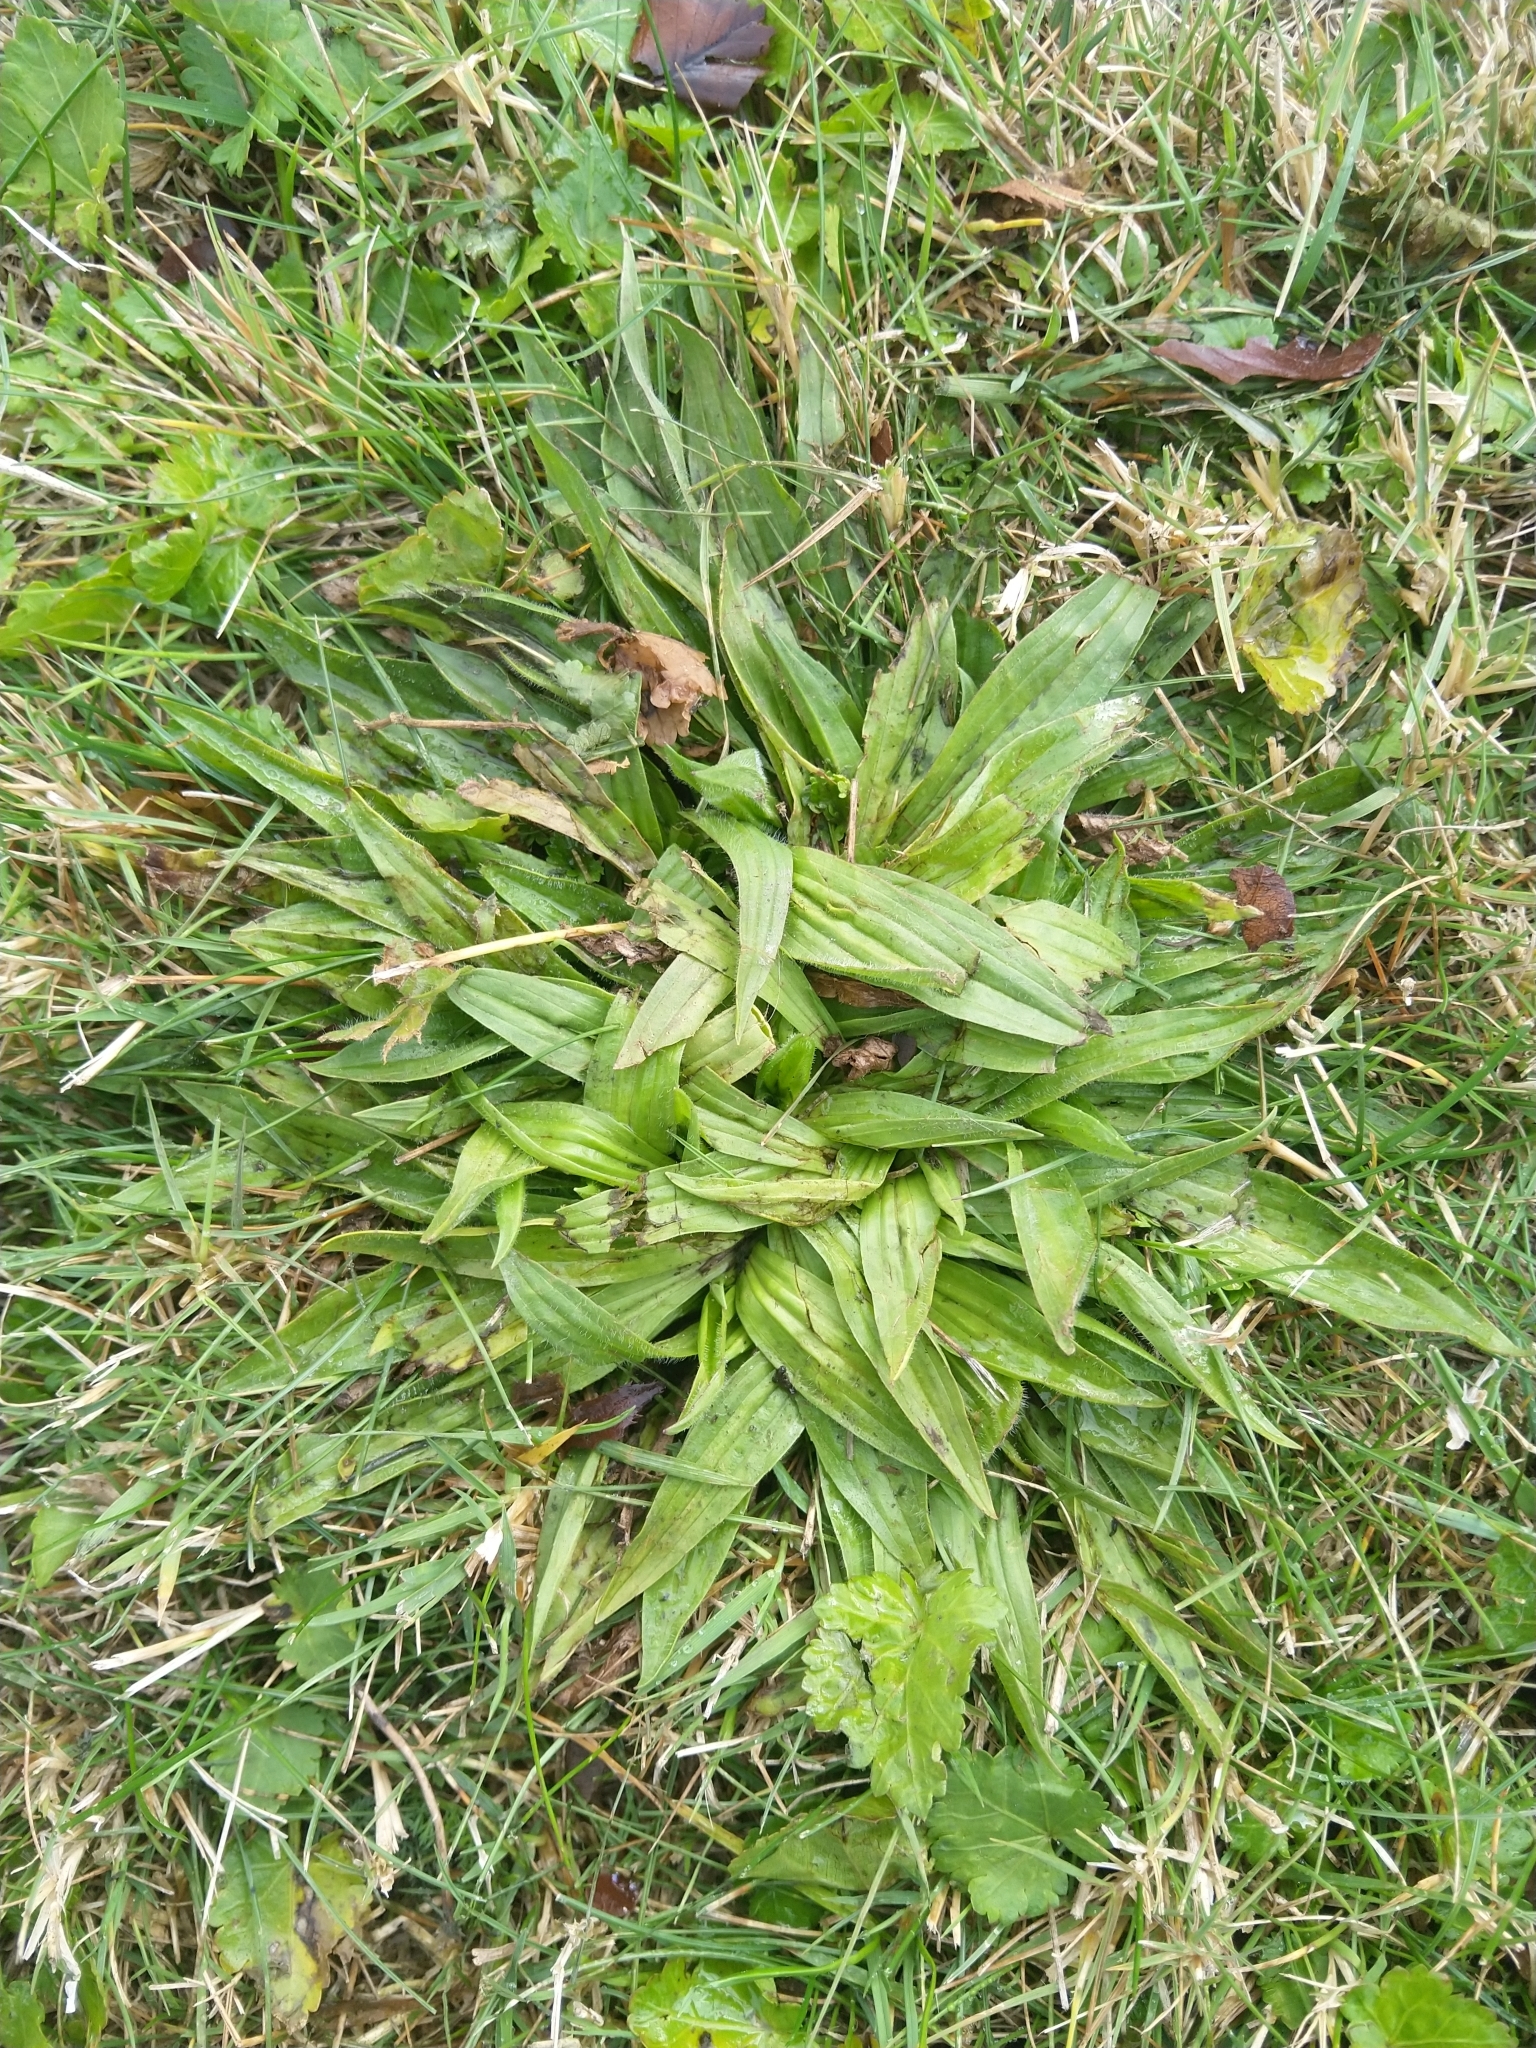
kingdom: Plantae
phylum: Tracheophyta
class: Magnoliopsida
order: Lamiales
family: Plantaginaceae
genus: Plantago
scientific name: Plantago lanceolata
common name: Ribwort plantain
